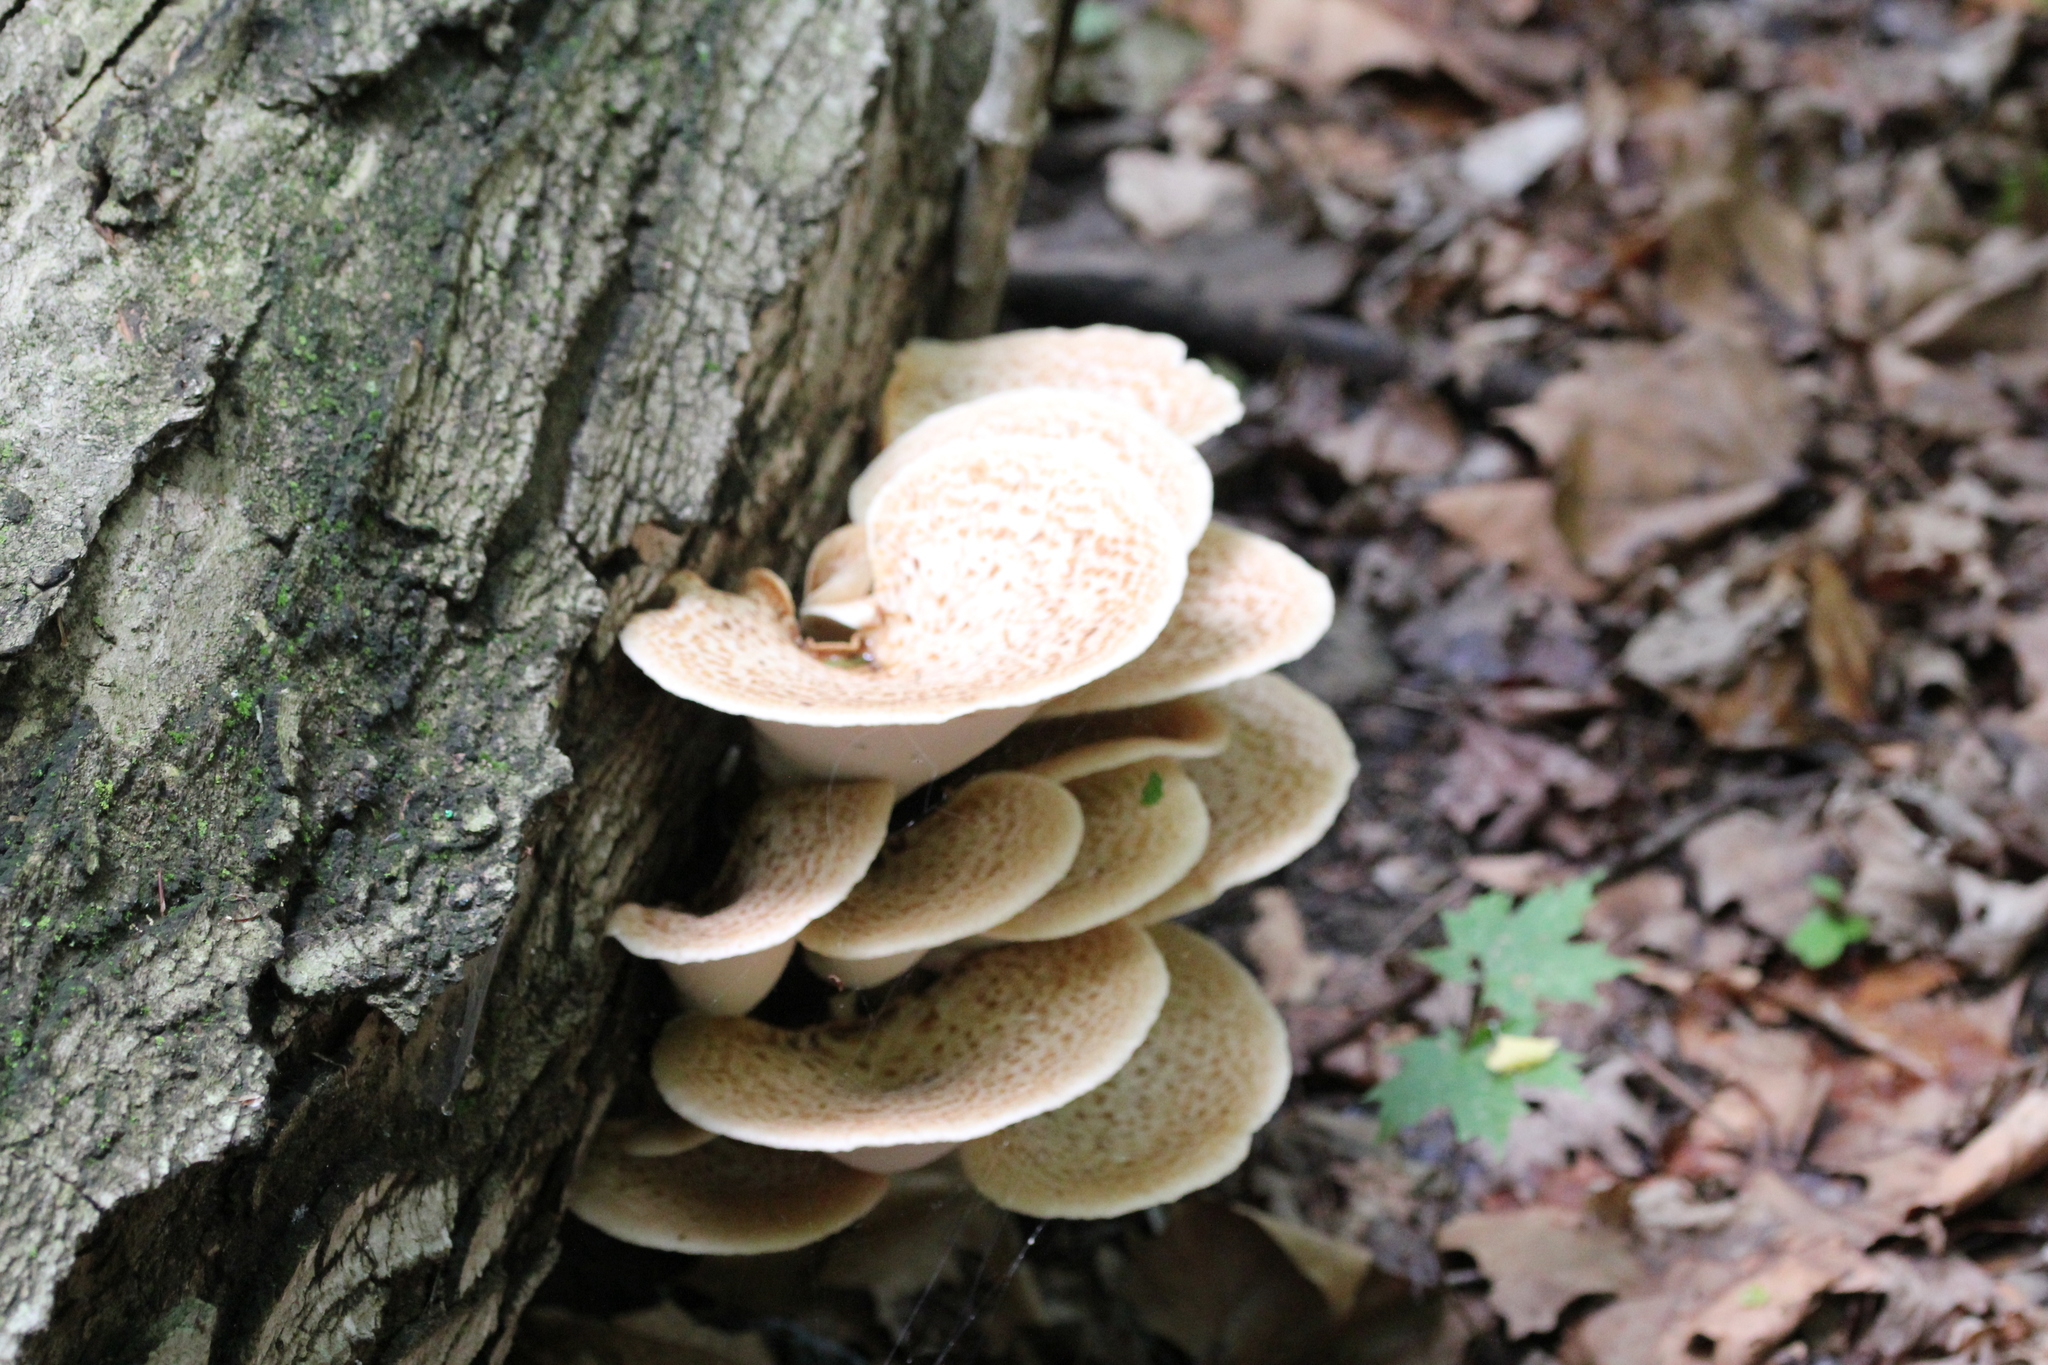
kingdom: Fungi
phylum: Basidiomycota
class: Agaricomycetes
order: Polyporales
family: Polyporaceae
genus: Cerioporus
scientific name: Cerioporus squamosus
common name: Dryad's saddle
